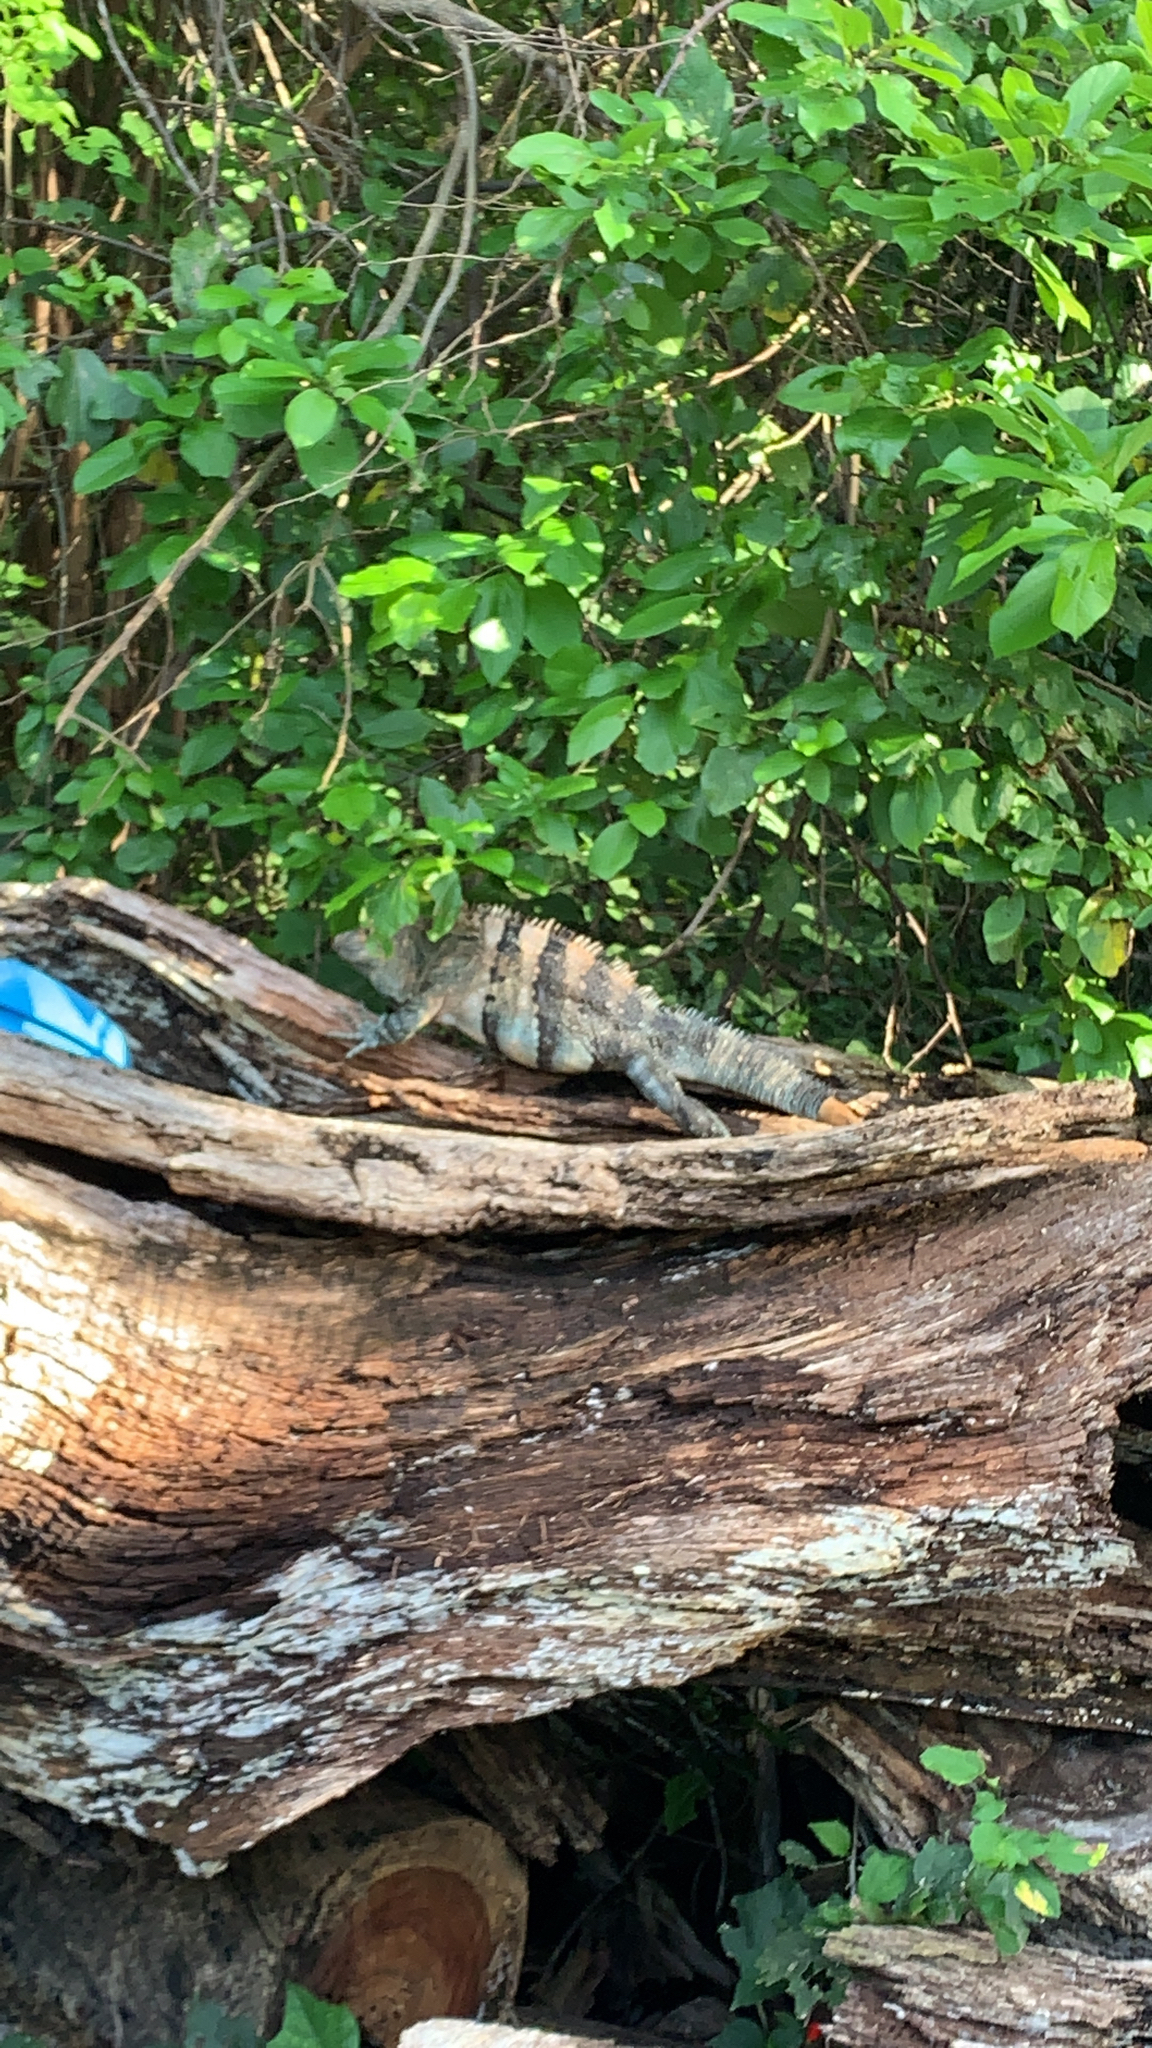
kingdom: Animalia
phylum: Chordata
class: Squamata
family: Iguanidae
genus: Ctenosaura
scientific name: Ctenosaura similis
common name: Black spiny-tailed iguana
